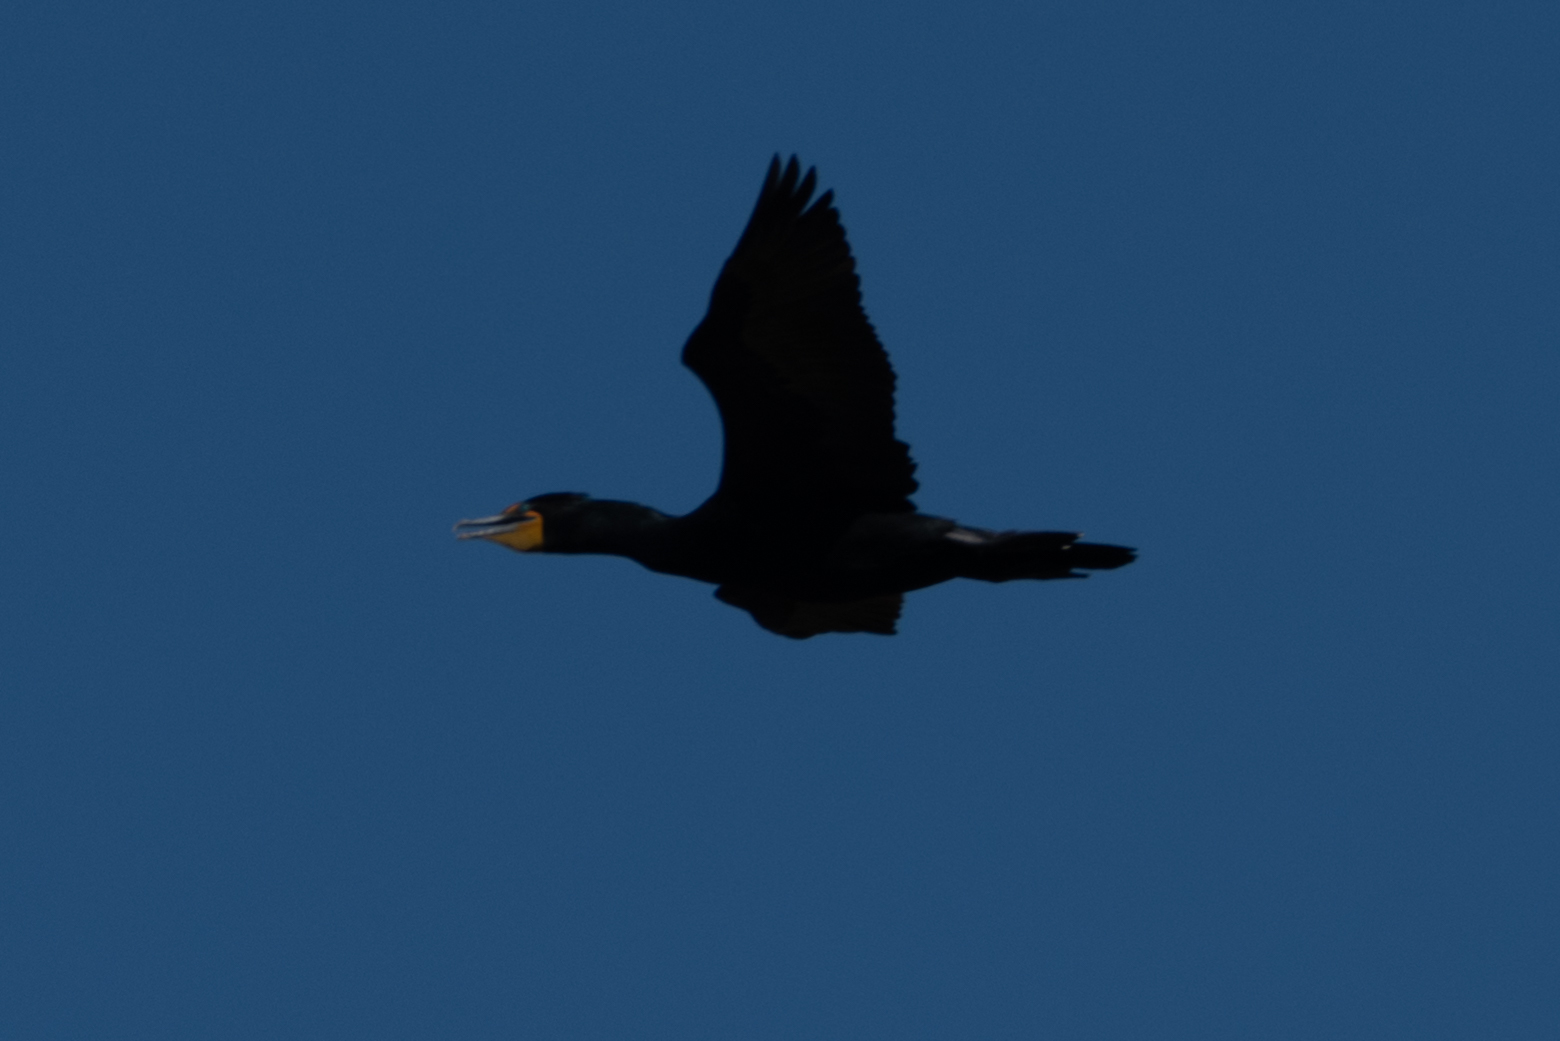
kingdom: Animalia
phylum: Chordata
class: Aves
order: Suliformes
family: Phalacrocoracidae
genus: Phalacrocorax
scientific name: Phalacrocorax auritus
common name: Double-crested cormorant
